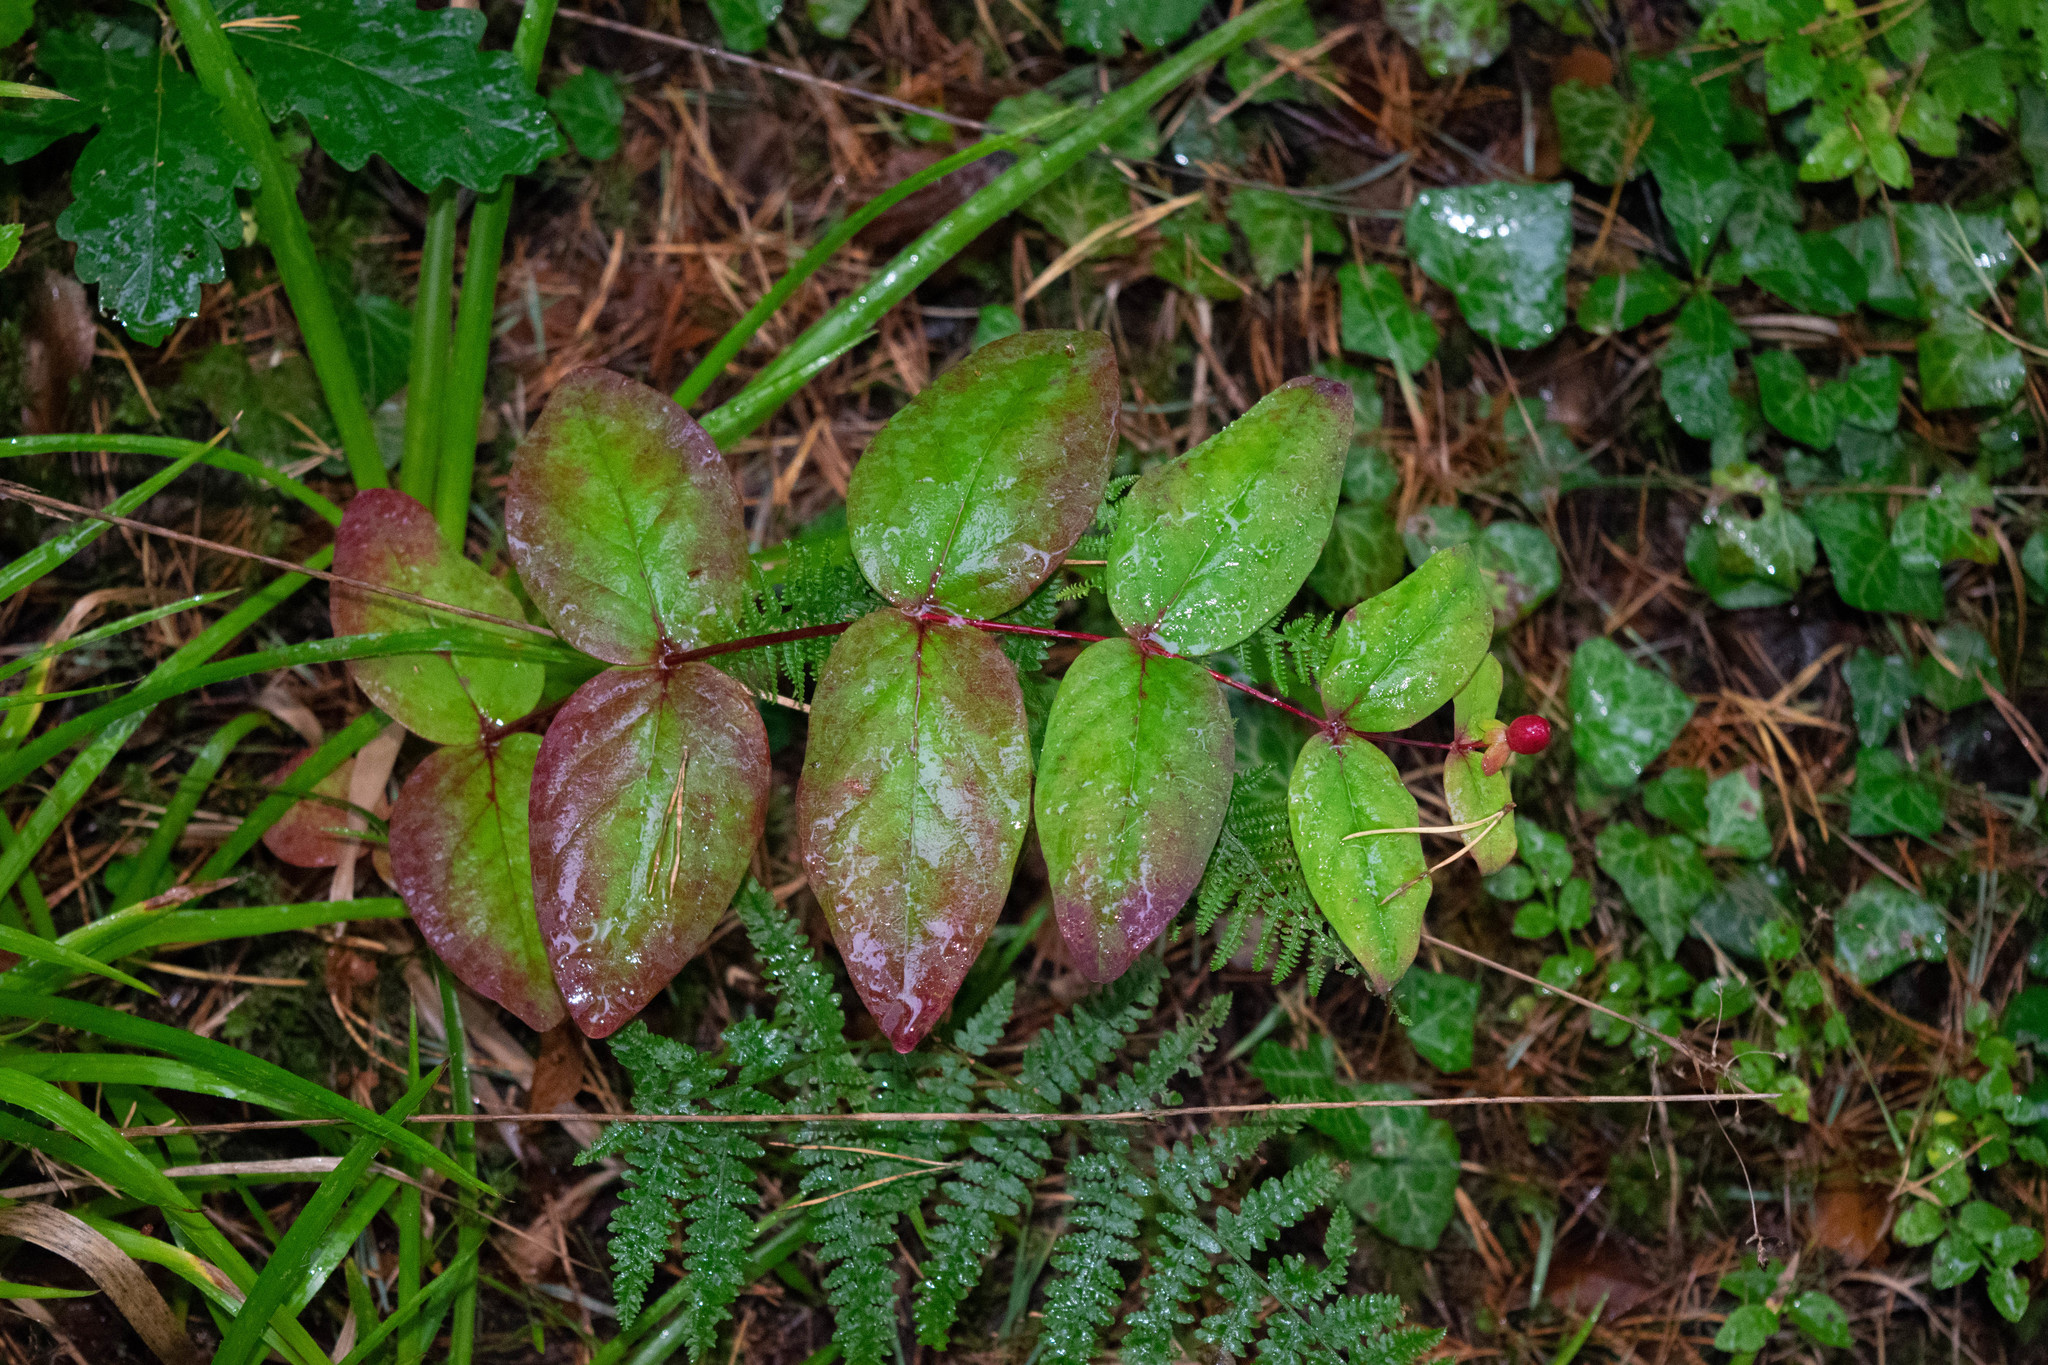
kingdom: Plantae
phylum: Tracheophyta
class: Magnoliopsida
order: Malpighiales
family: Hypericaceae
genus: Hypericum
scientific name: Hypericum androsaemum
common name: Sweet-amber
